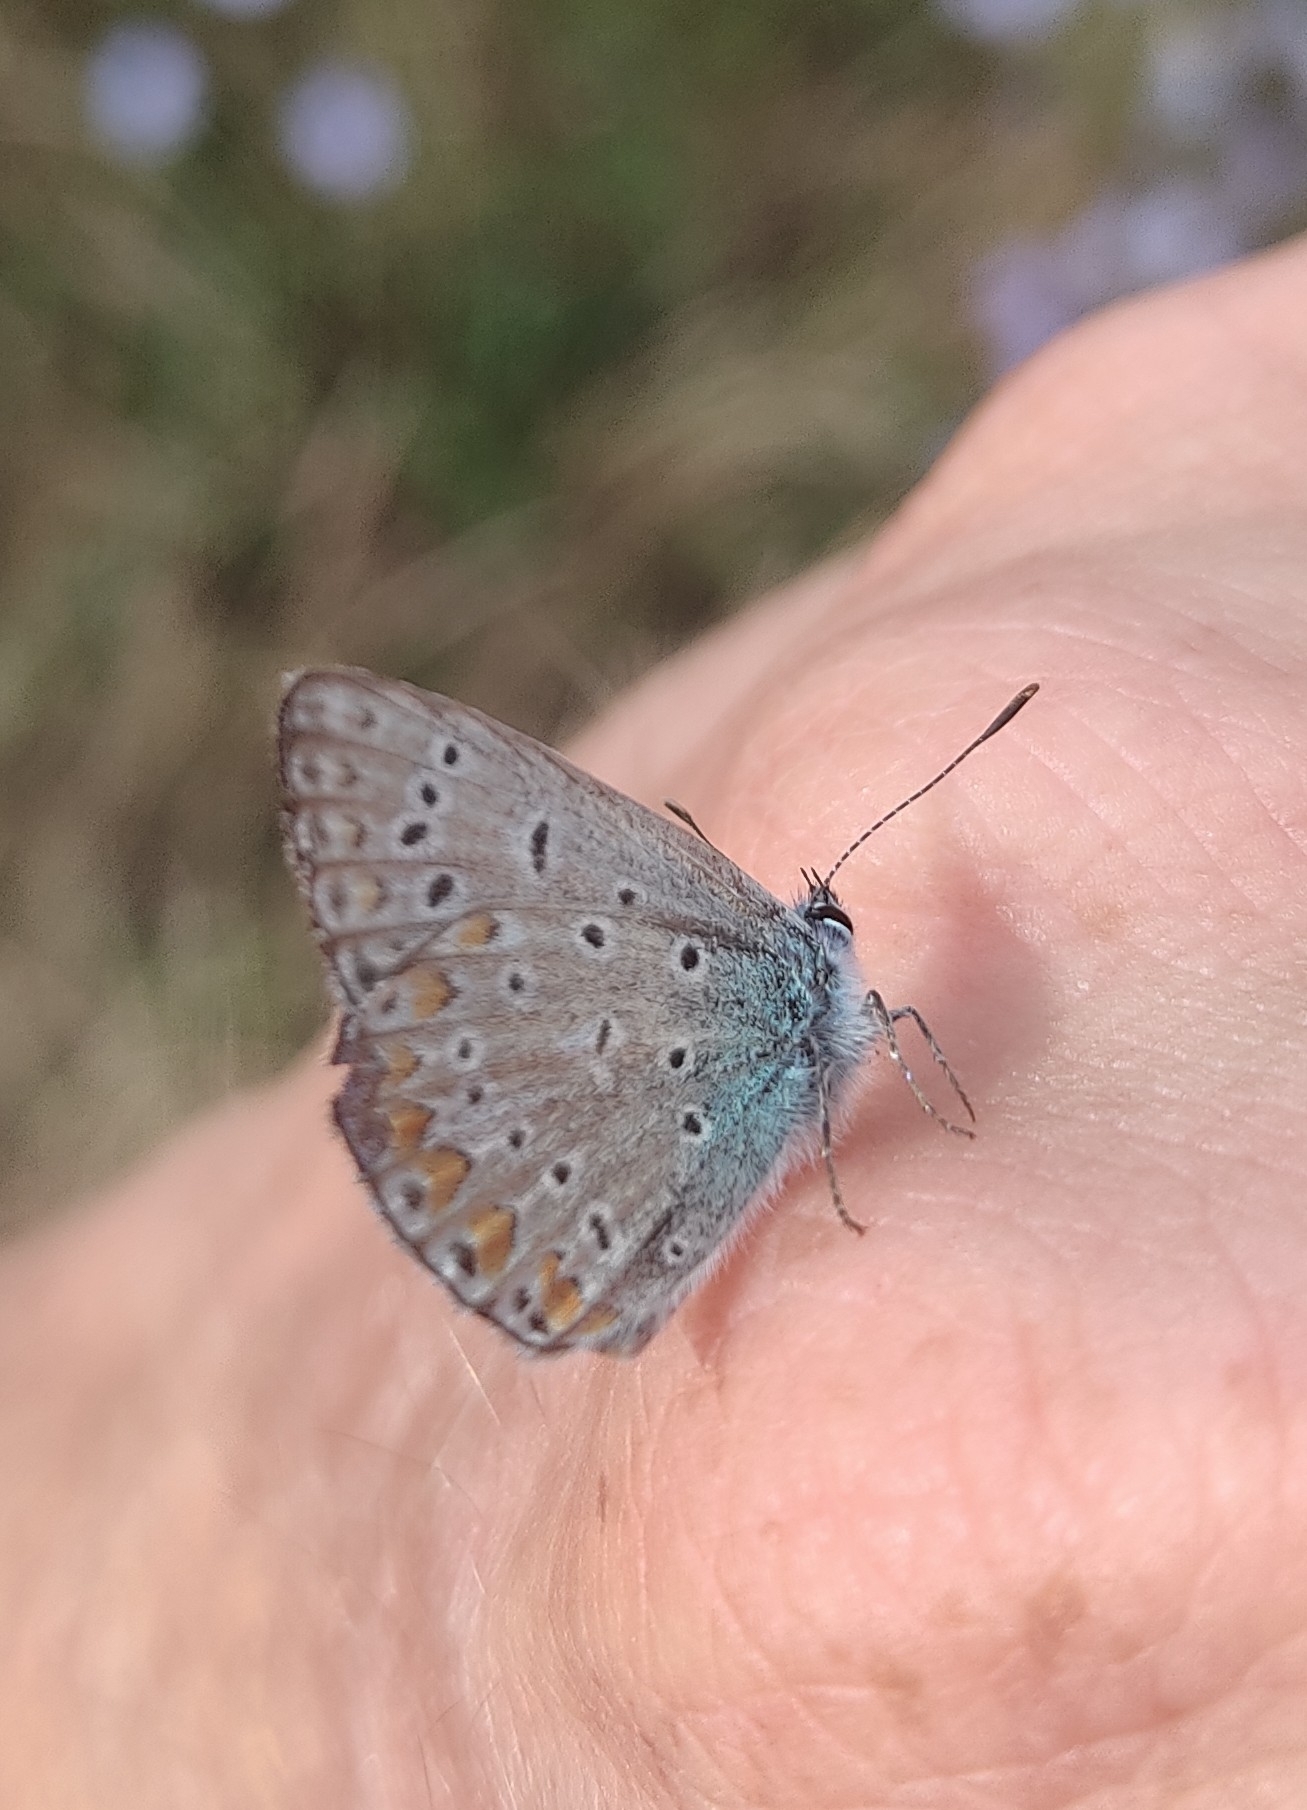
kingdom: Animalia
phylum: Arthropoda
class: Insecta
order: Lepidoptera
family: Lycaenidae
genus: Polyommatus
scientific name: Polyommatus icarus
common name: Common blue
